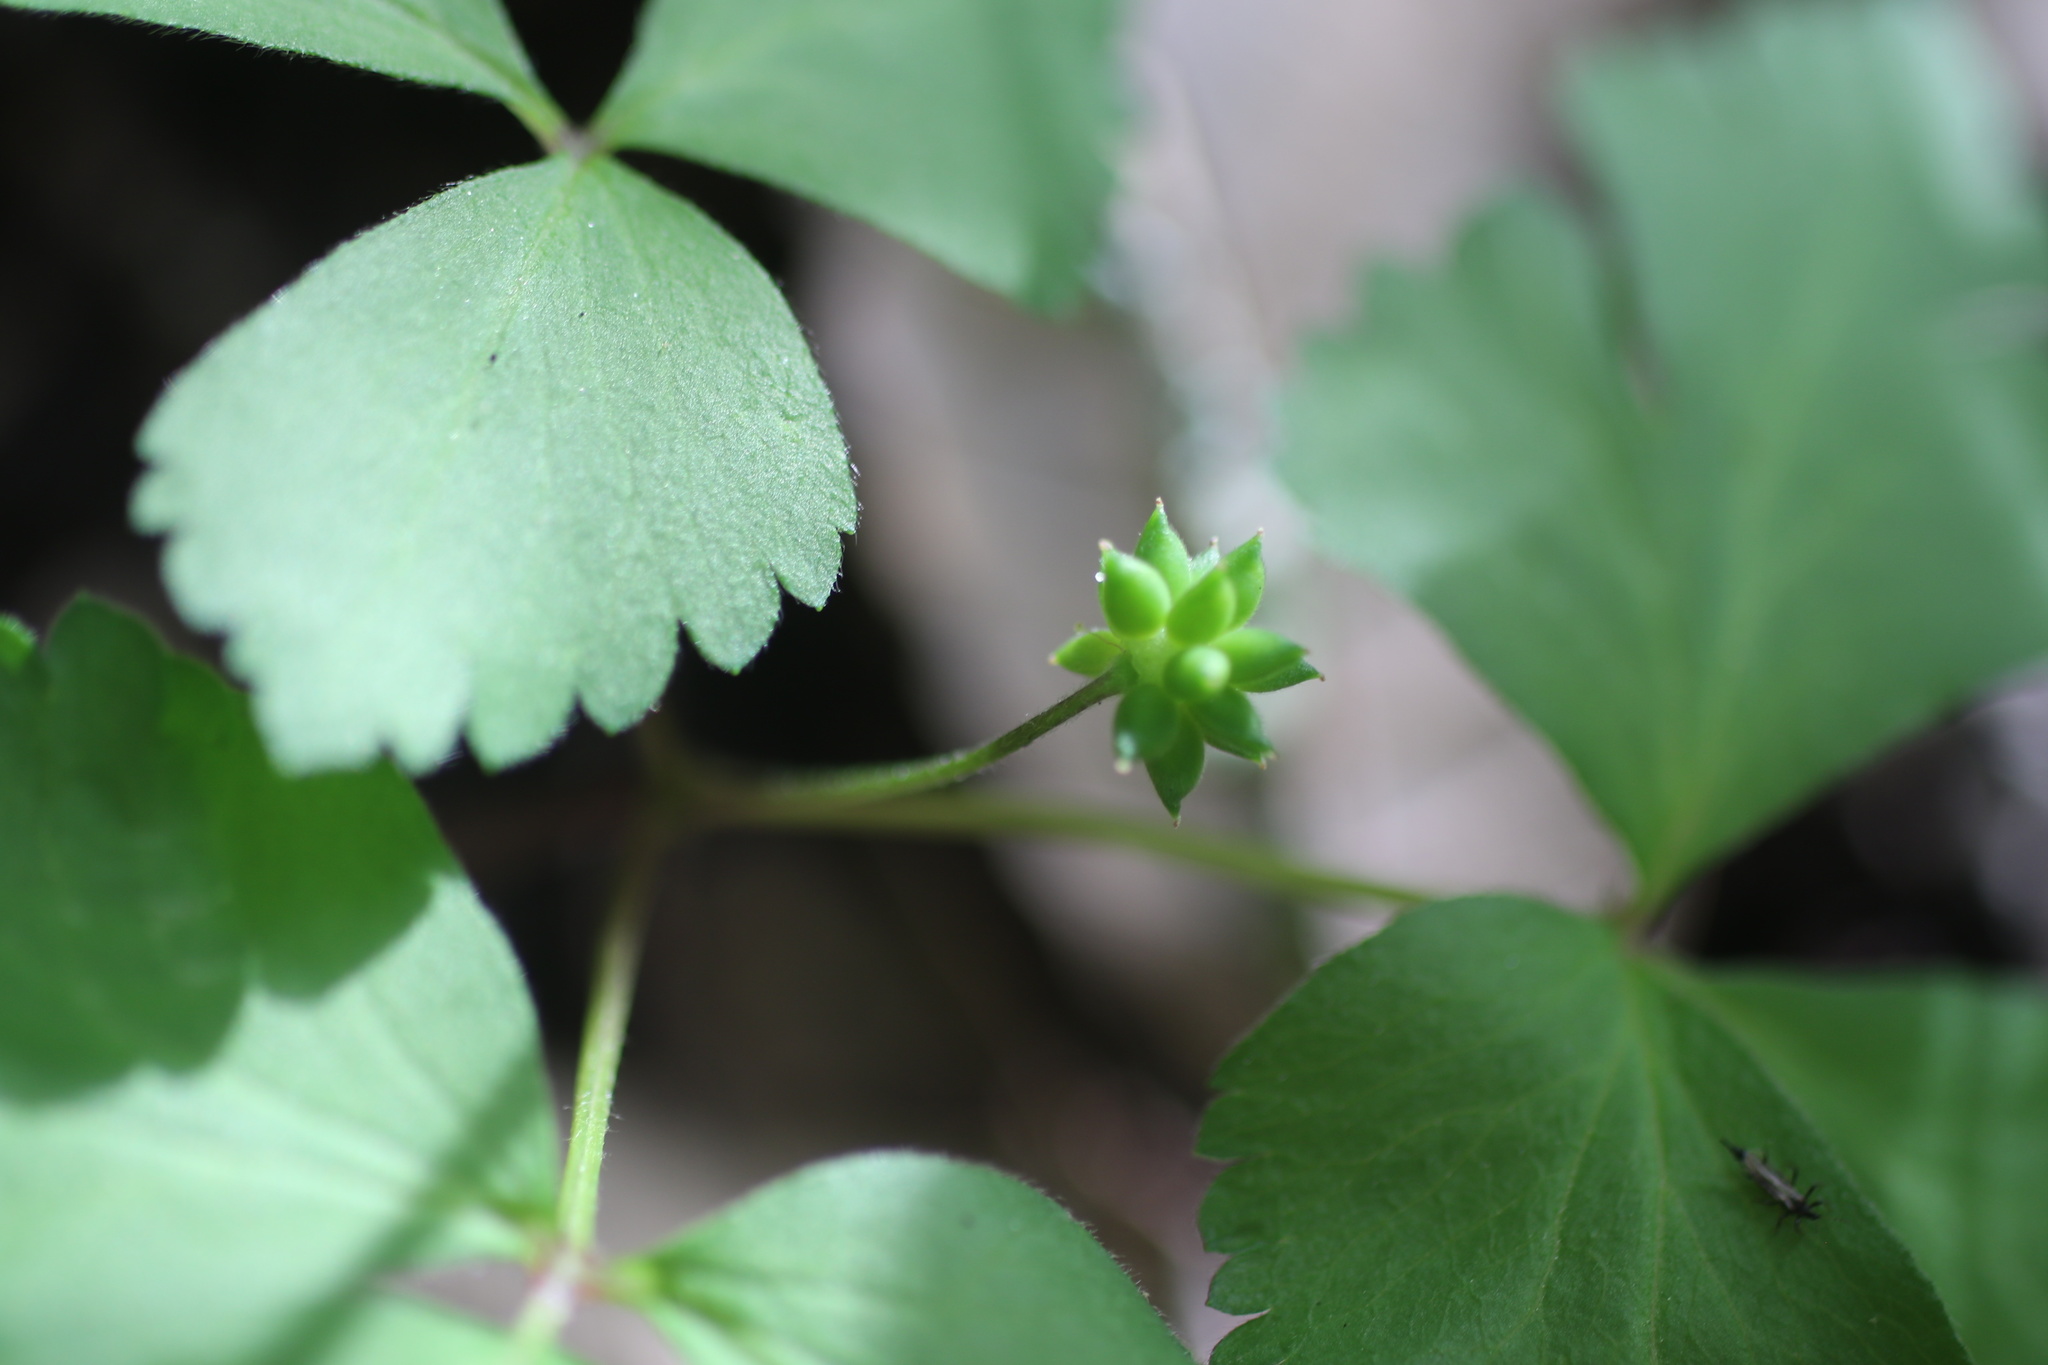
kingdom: Plantae
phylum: Tracheophyta
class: Magnoliopsida
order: Ranunculales
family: Ranunculaceae
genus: Anemone
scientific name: Anemone
